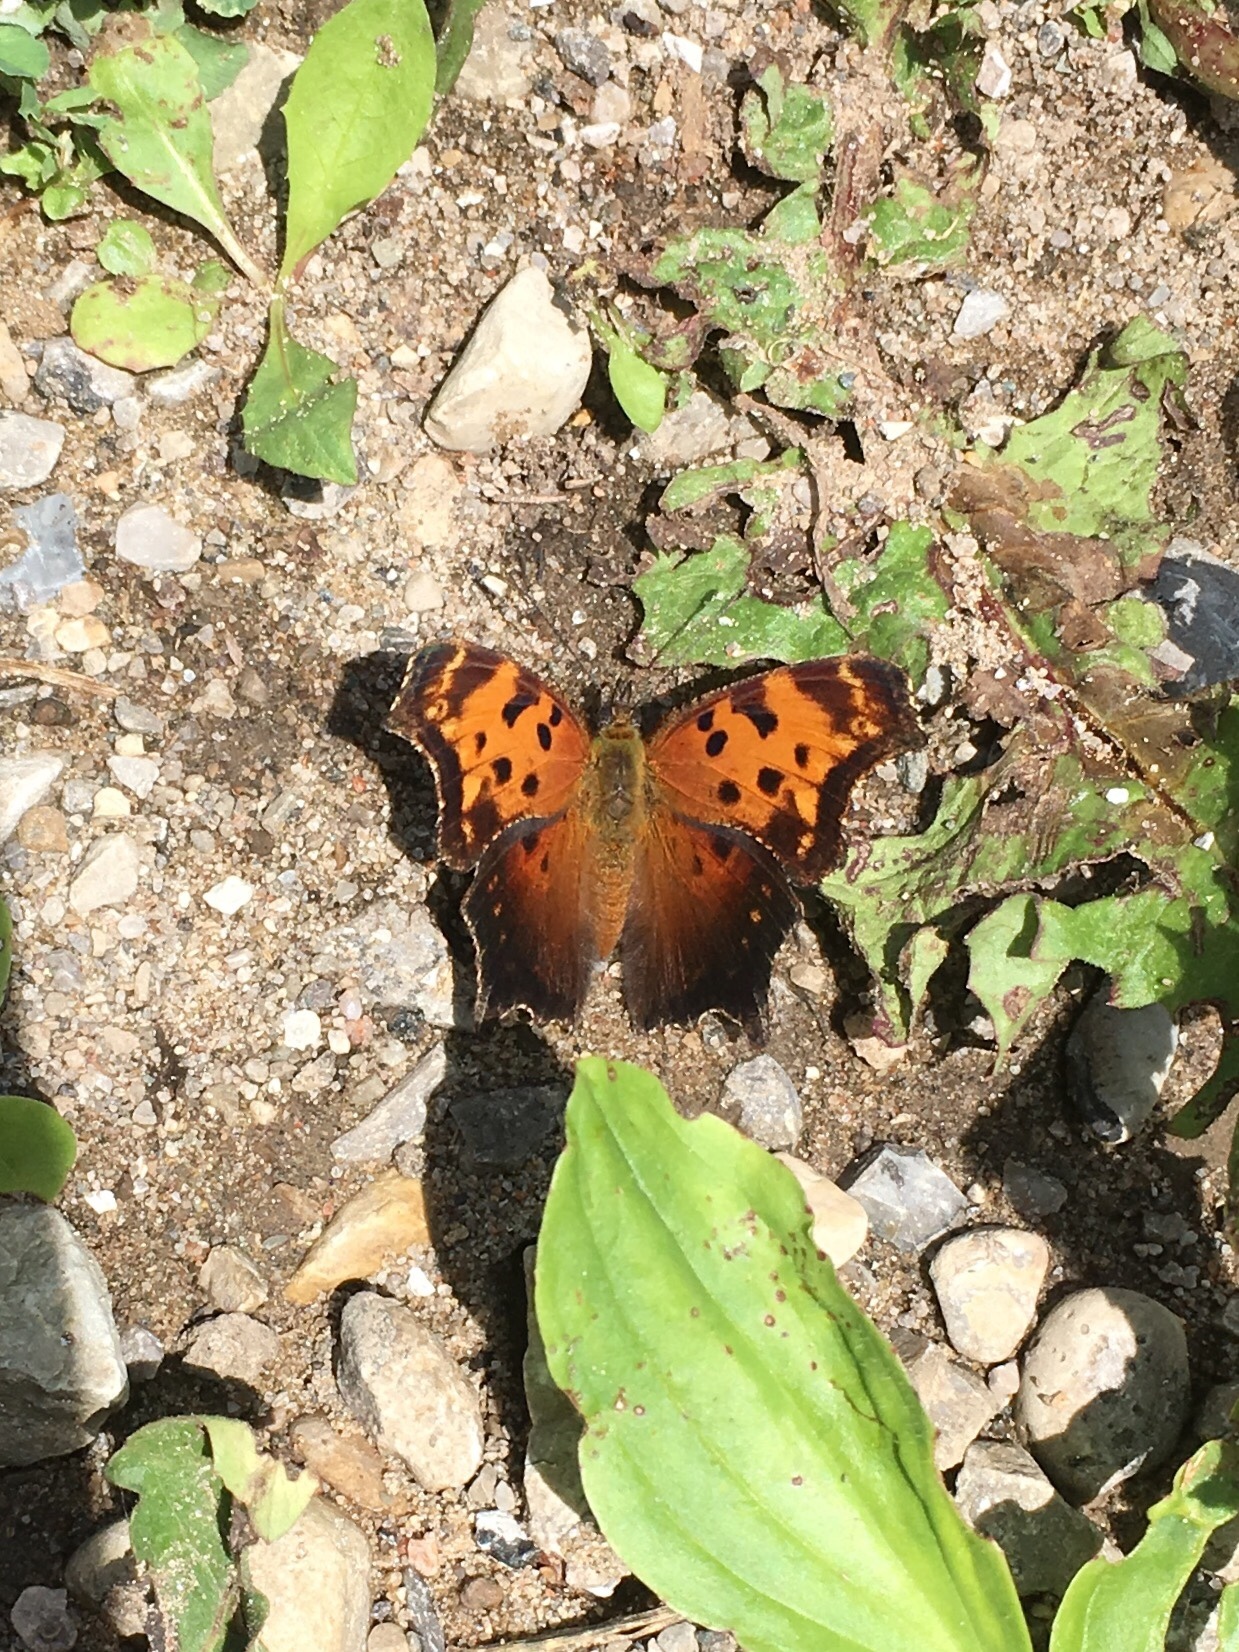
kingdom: Animalia
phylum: Arthropoda
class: Insecta
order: Lepidoptera
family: Nymphalidae
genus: Polygonia
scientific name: Polygonia progne
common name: Gray comma
